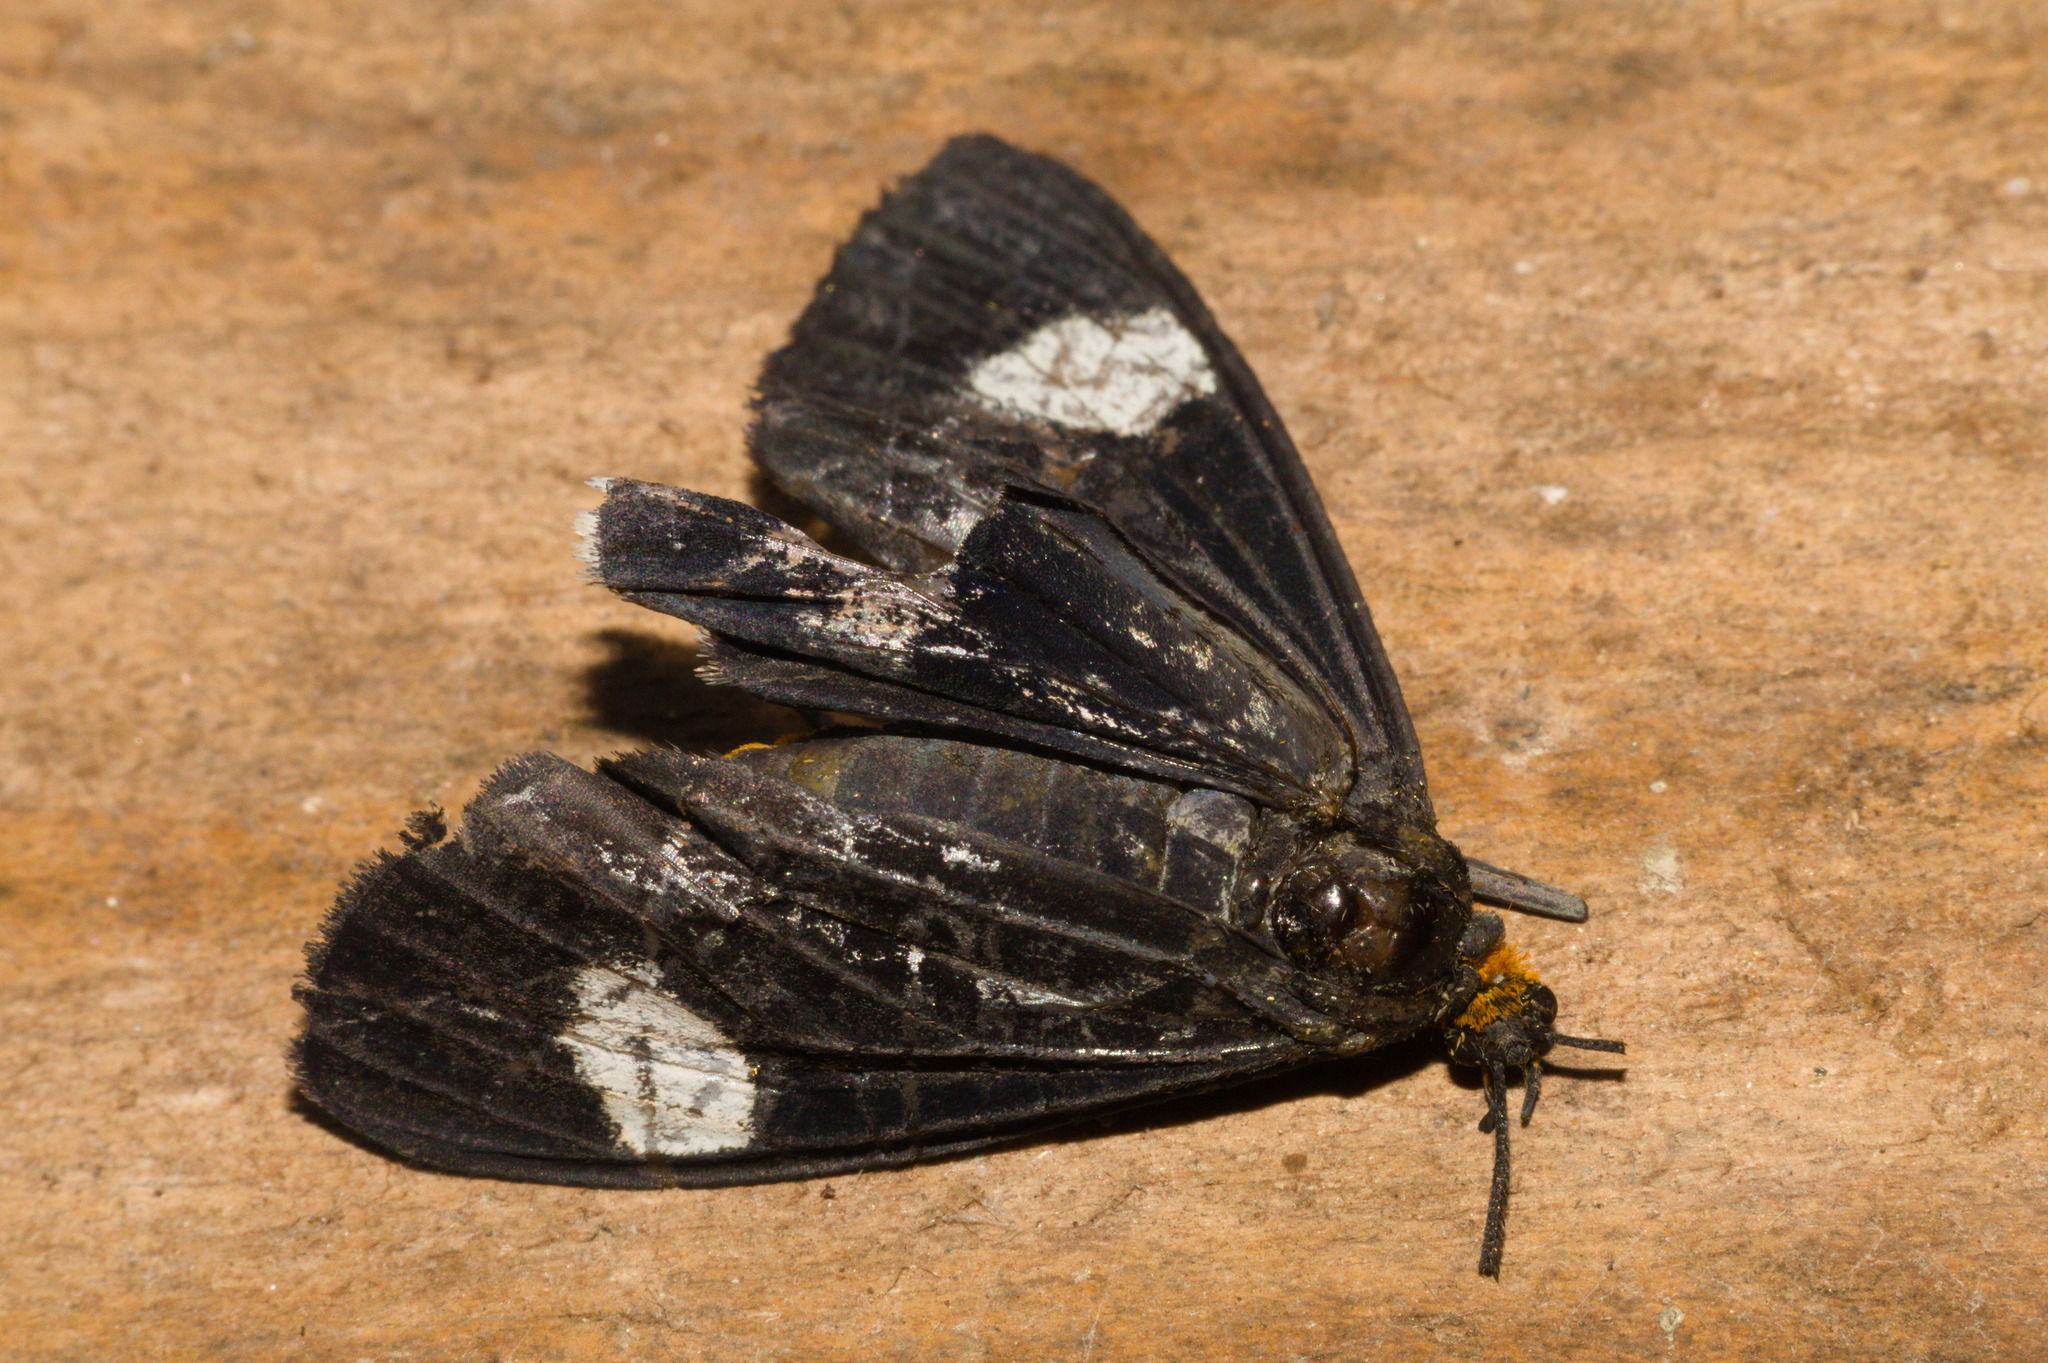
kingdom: Animalia
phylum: Arthropoda
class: Insecta
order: Lepidoptera
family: Erebidae
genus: Calodesma
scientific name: Calodesma collaris
